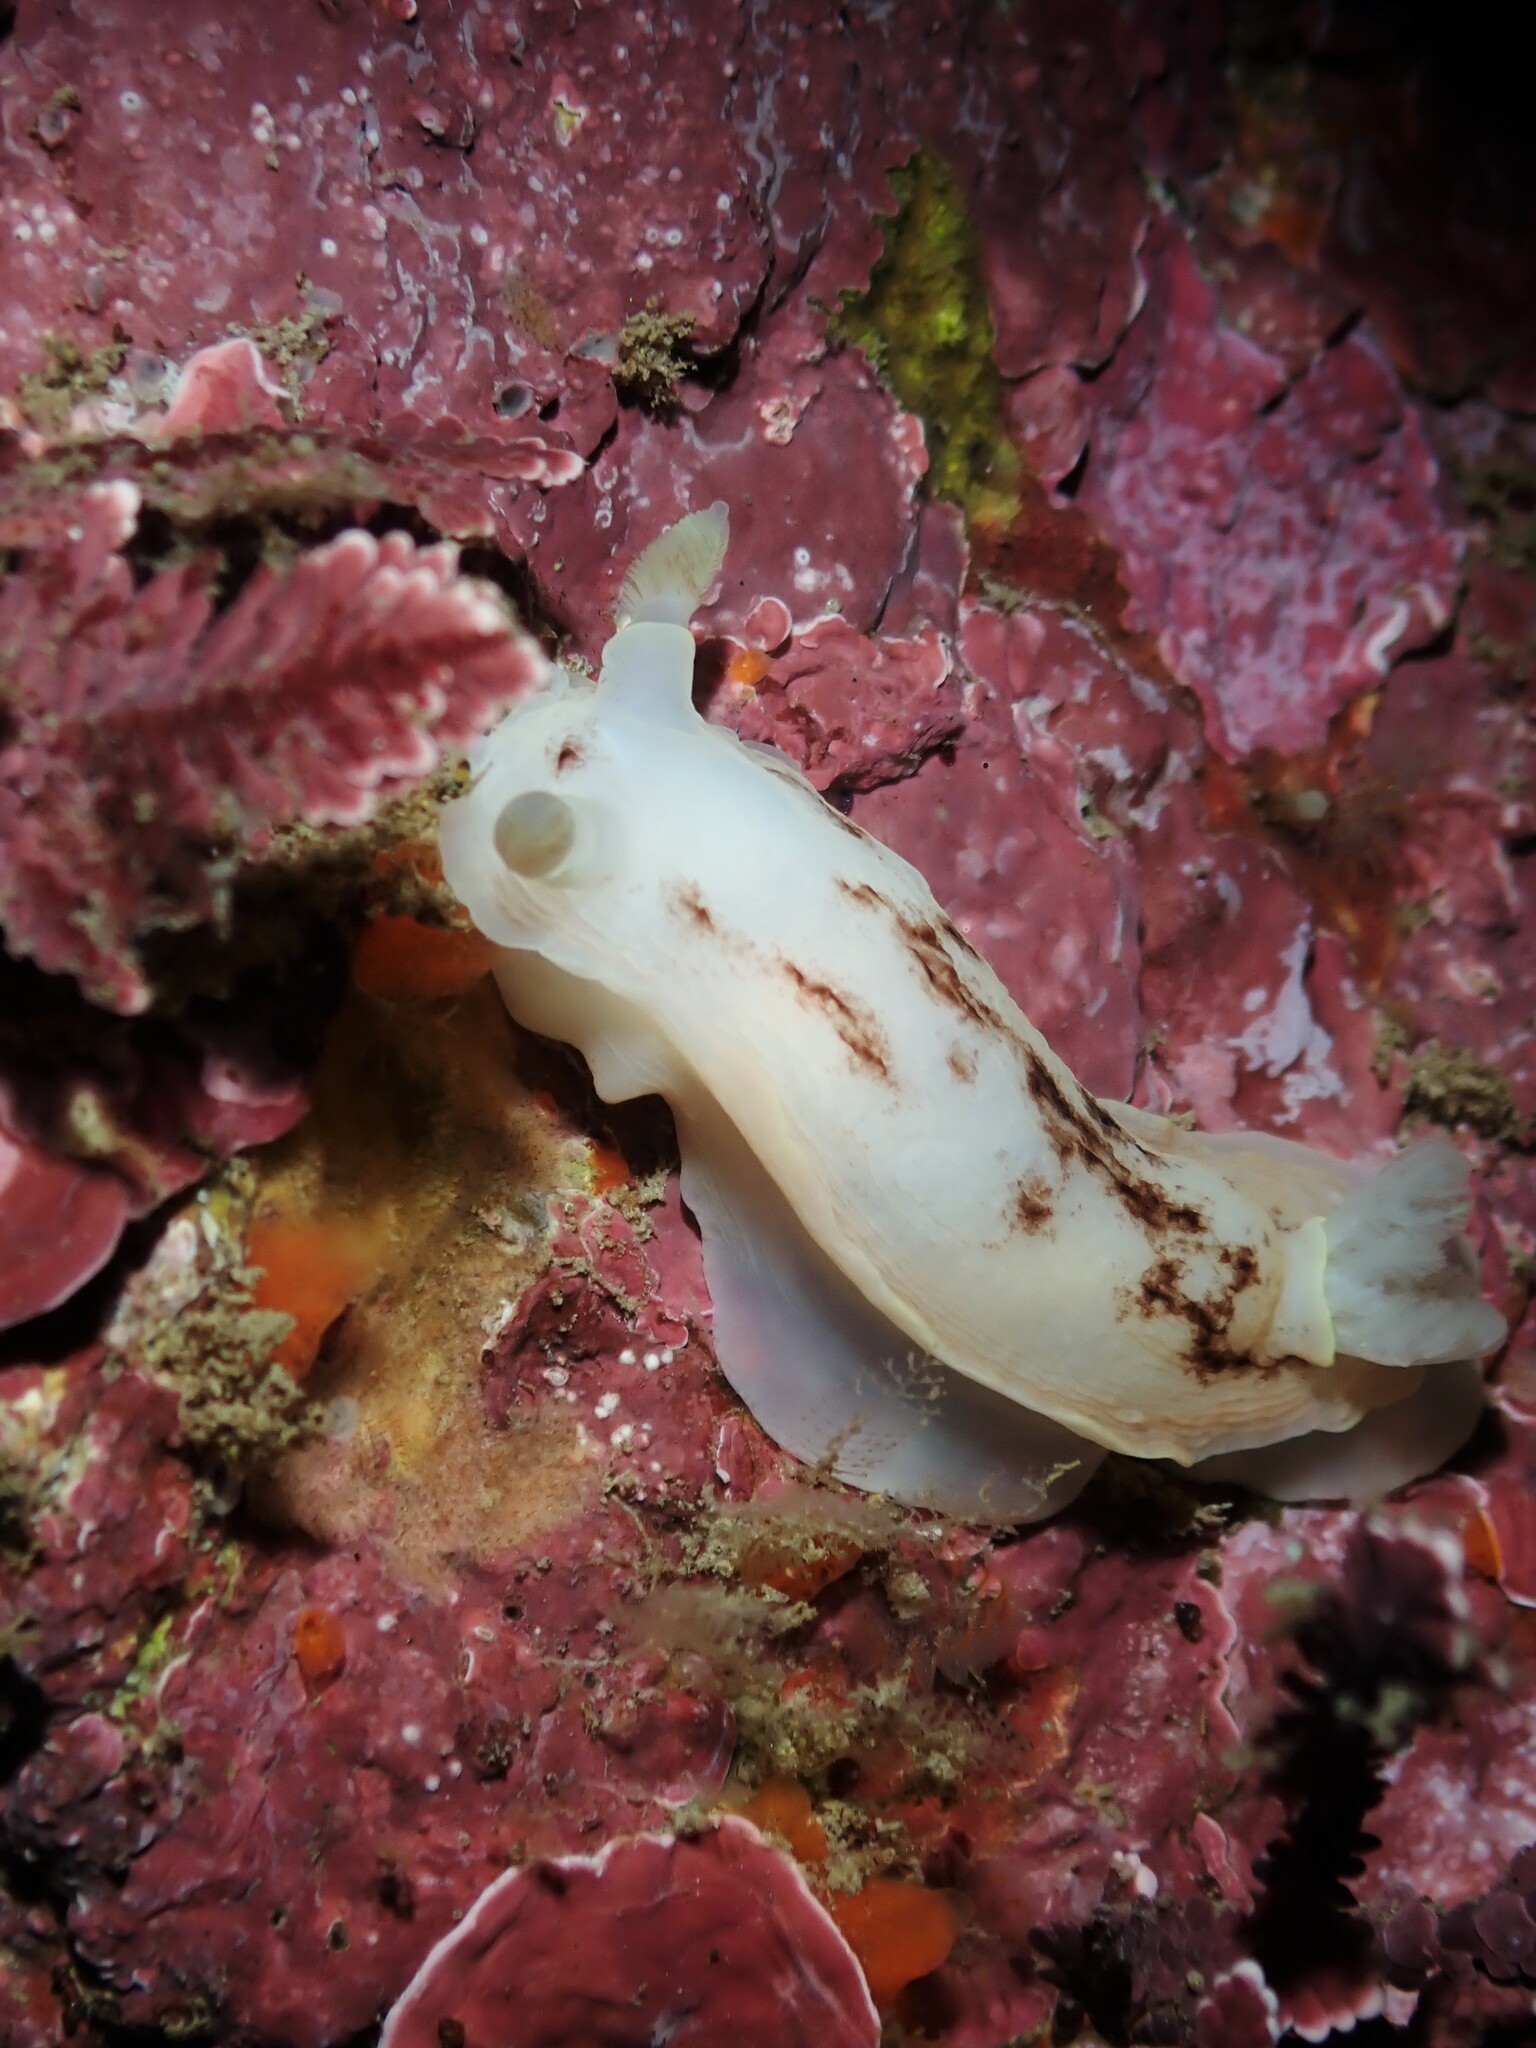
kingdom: Animalia
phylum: Mollusca
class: Gastropoda
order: Nudibranchia
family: Dorididae
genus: Aphelodoris
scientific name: Aphelodoris luctuosa
